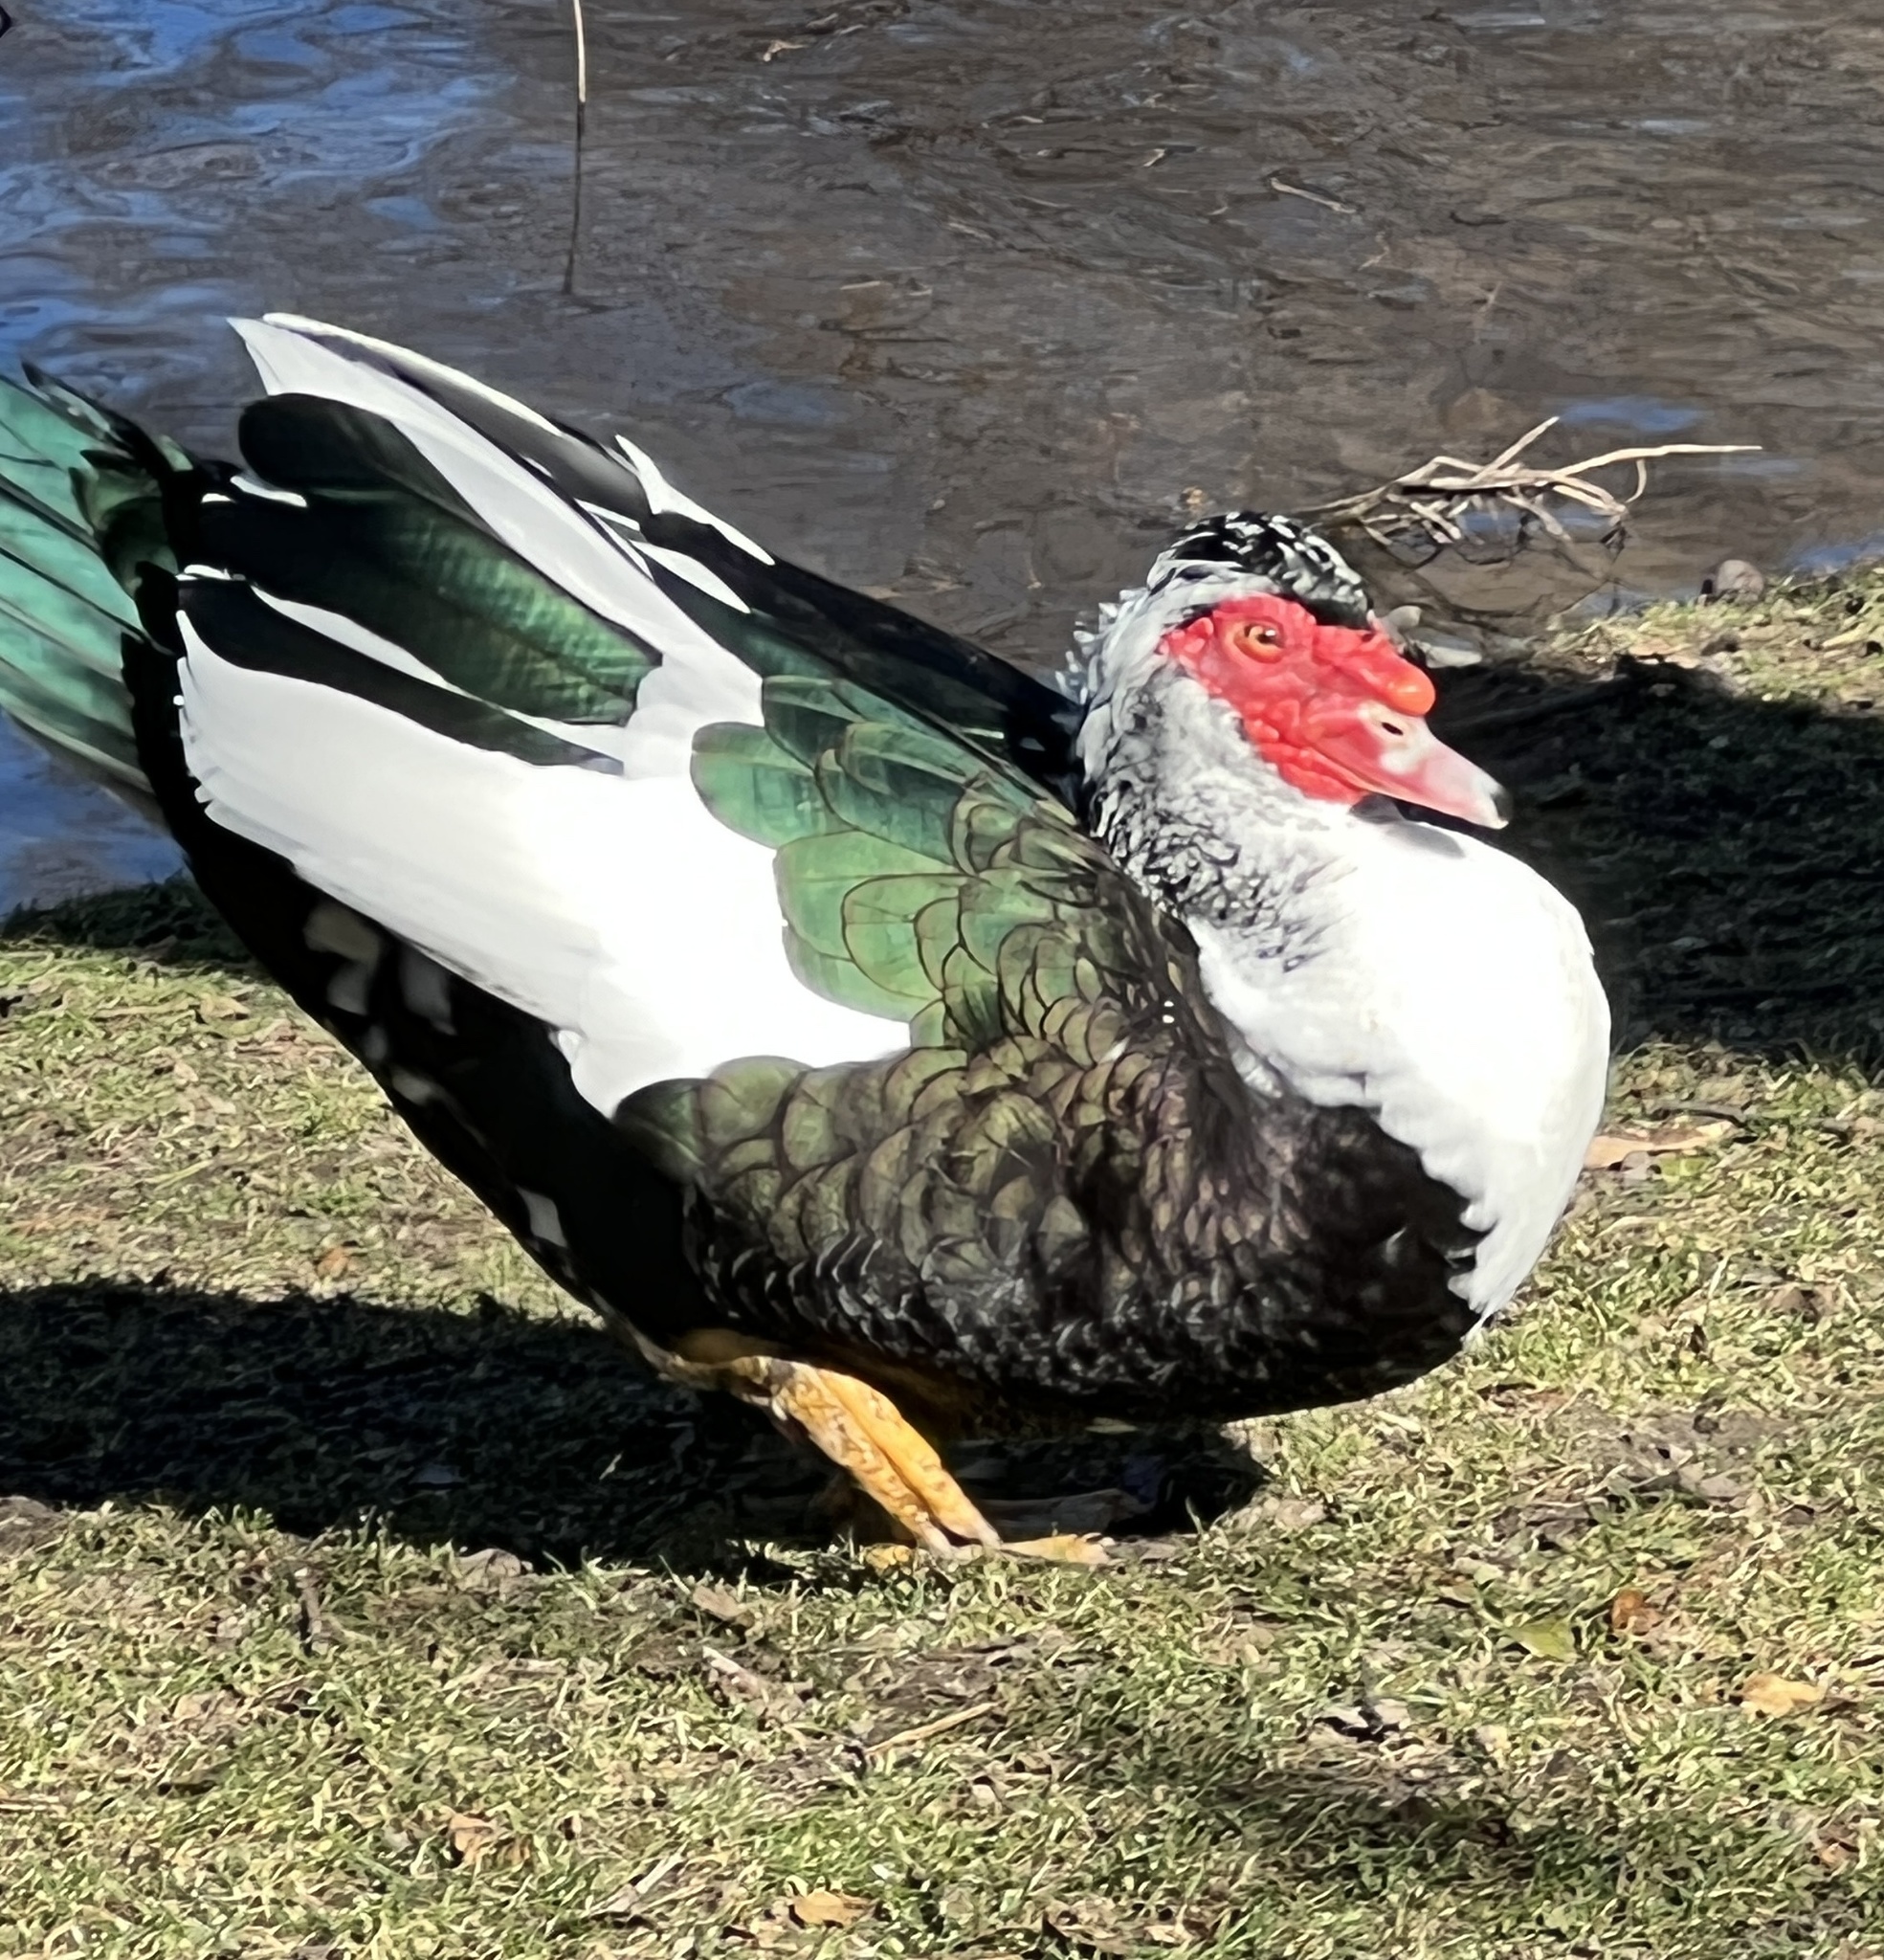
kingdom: Animalia
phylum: Chordata
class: Aves
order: Anseriformes
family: Anatidae
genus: Cairina
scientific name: Cairina moschata
